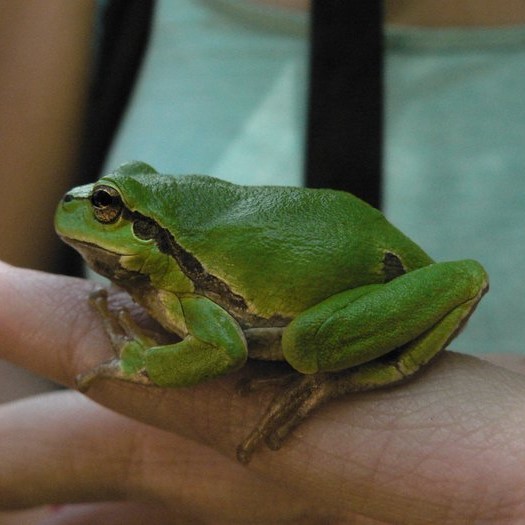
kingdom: Animalia
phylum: Chordata
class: Amphibia
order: Anura
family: Hylidae
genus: Hyla
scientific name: Hyla arborea
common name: Common tree frog
